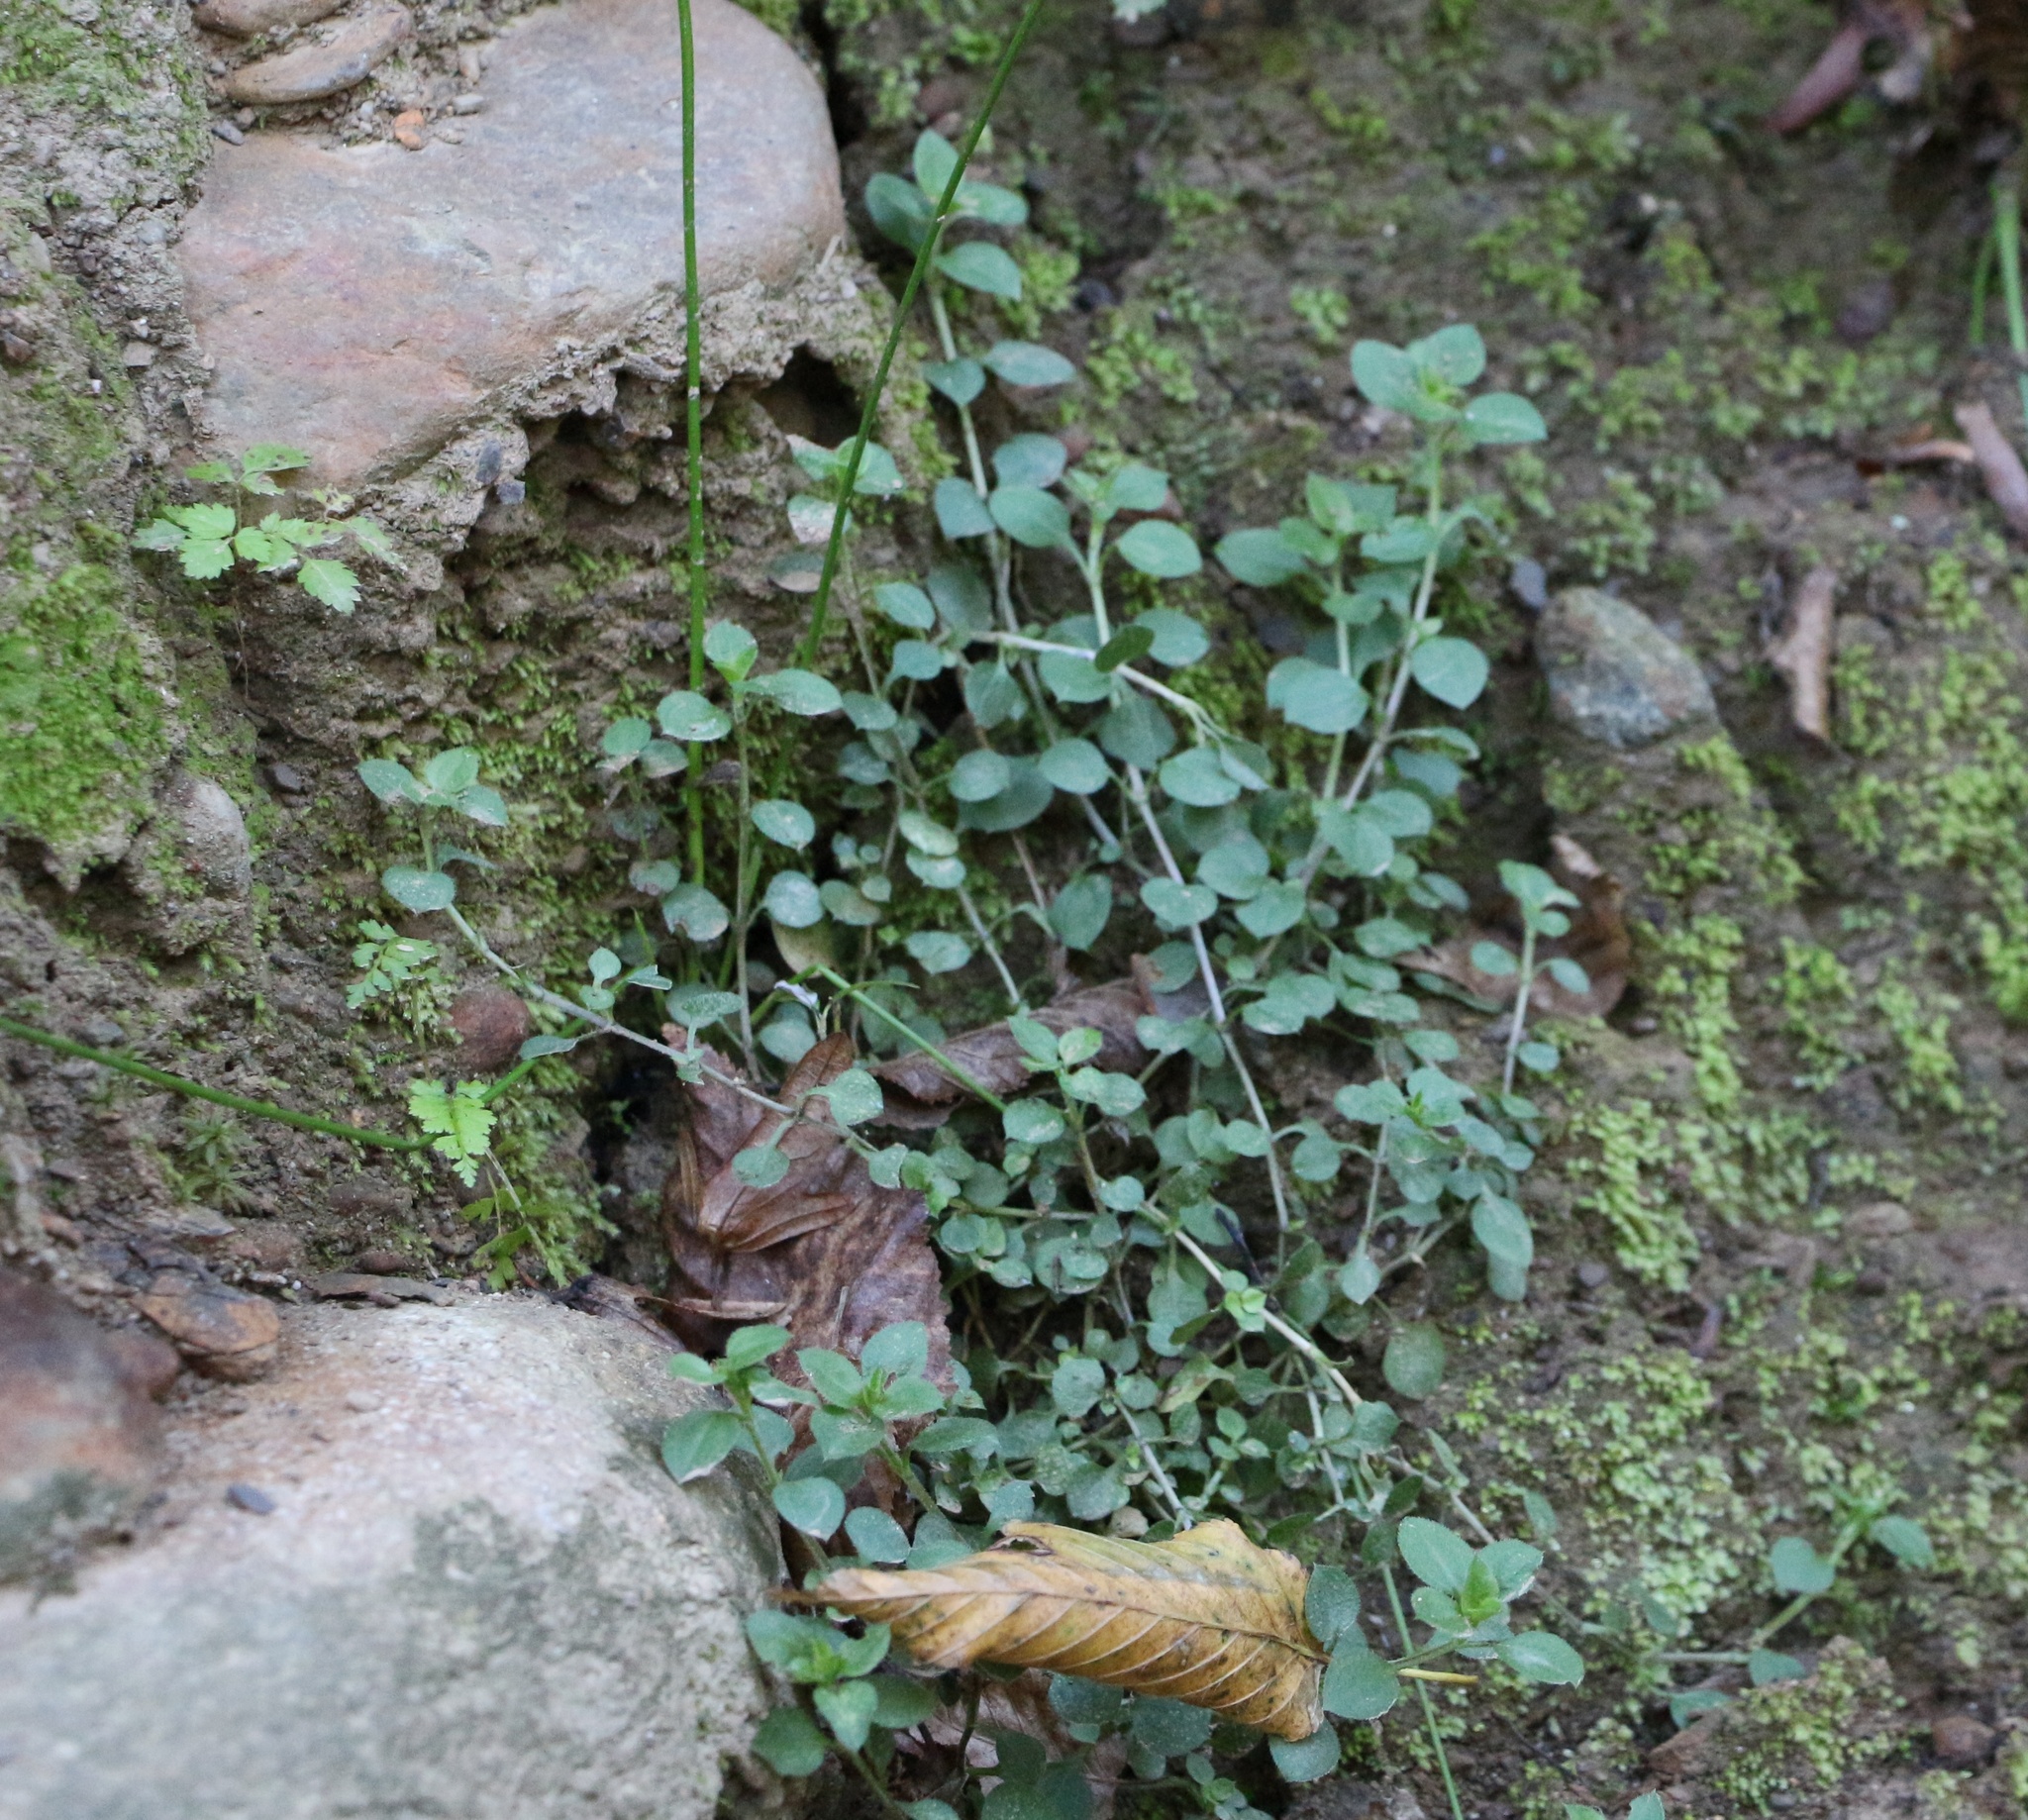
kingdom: Plantae
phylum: Tracheophyta
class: Magnoliopsida
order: Caryophyllales
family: Caryophyllaceae
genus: Moehringia
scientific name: Moehringia trinervia
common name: Three-nerved sandwort
